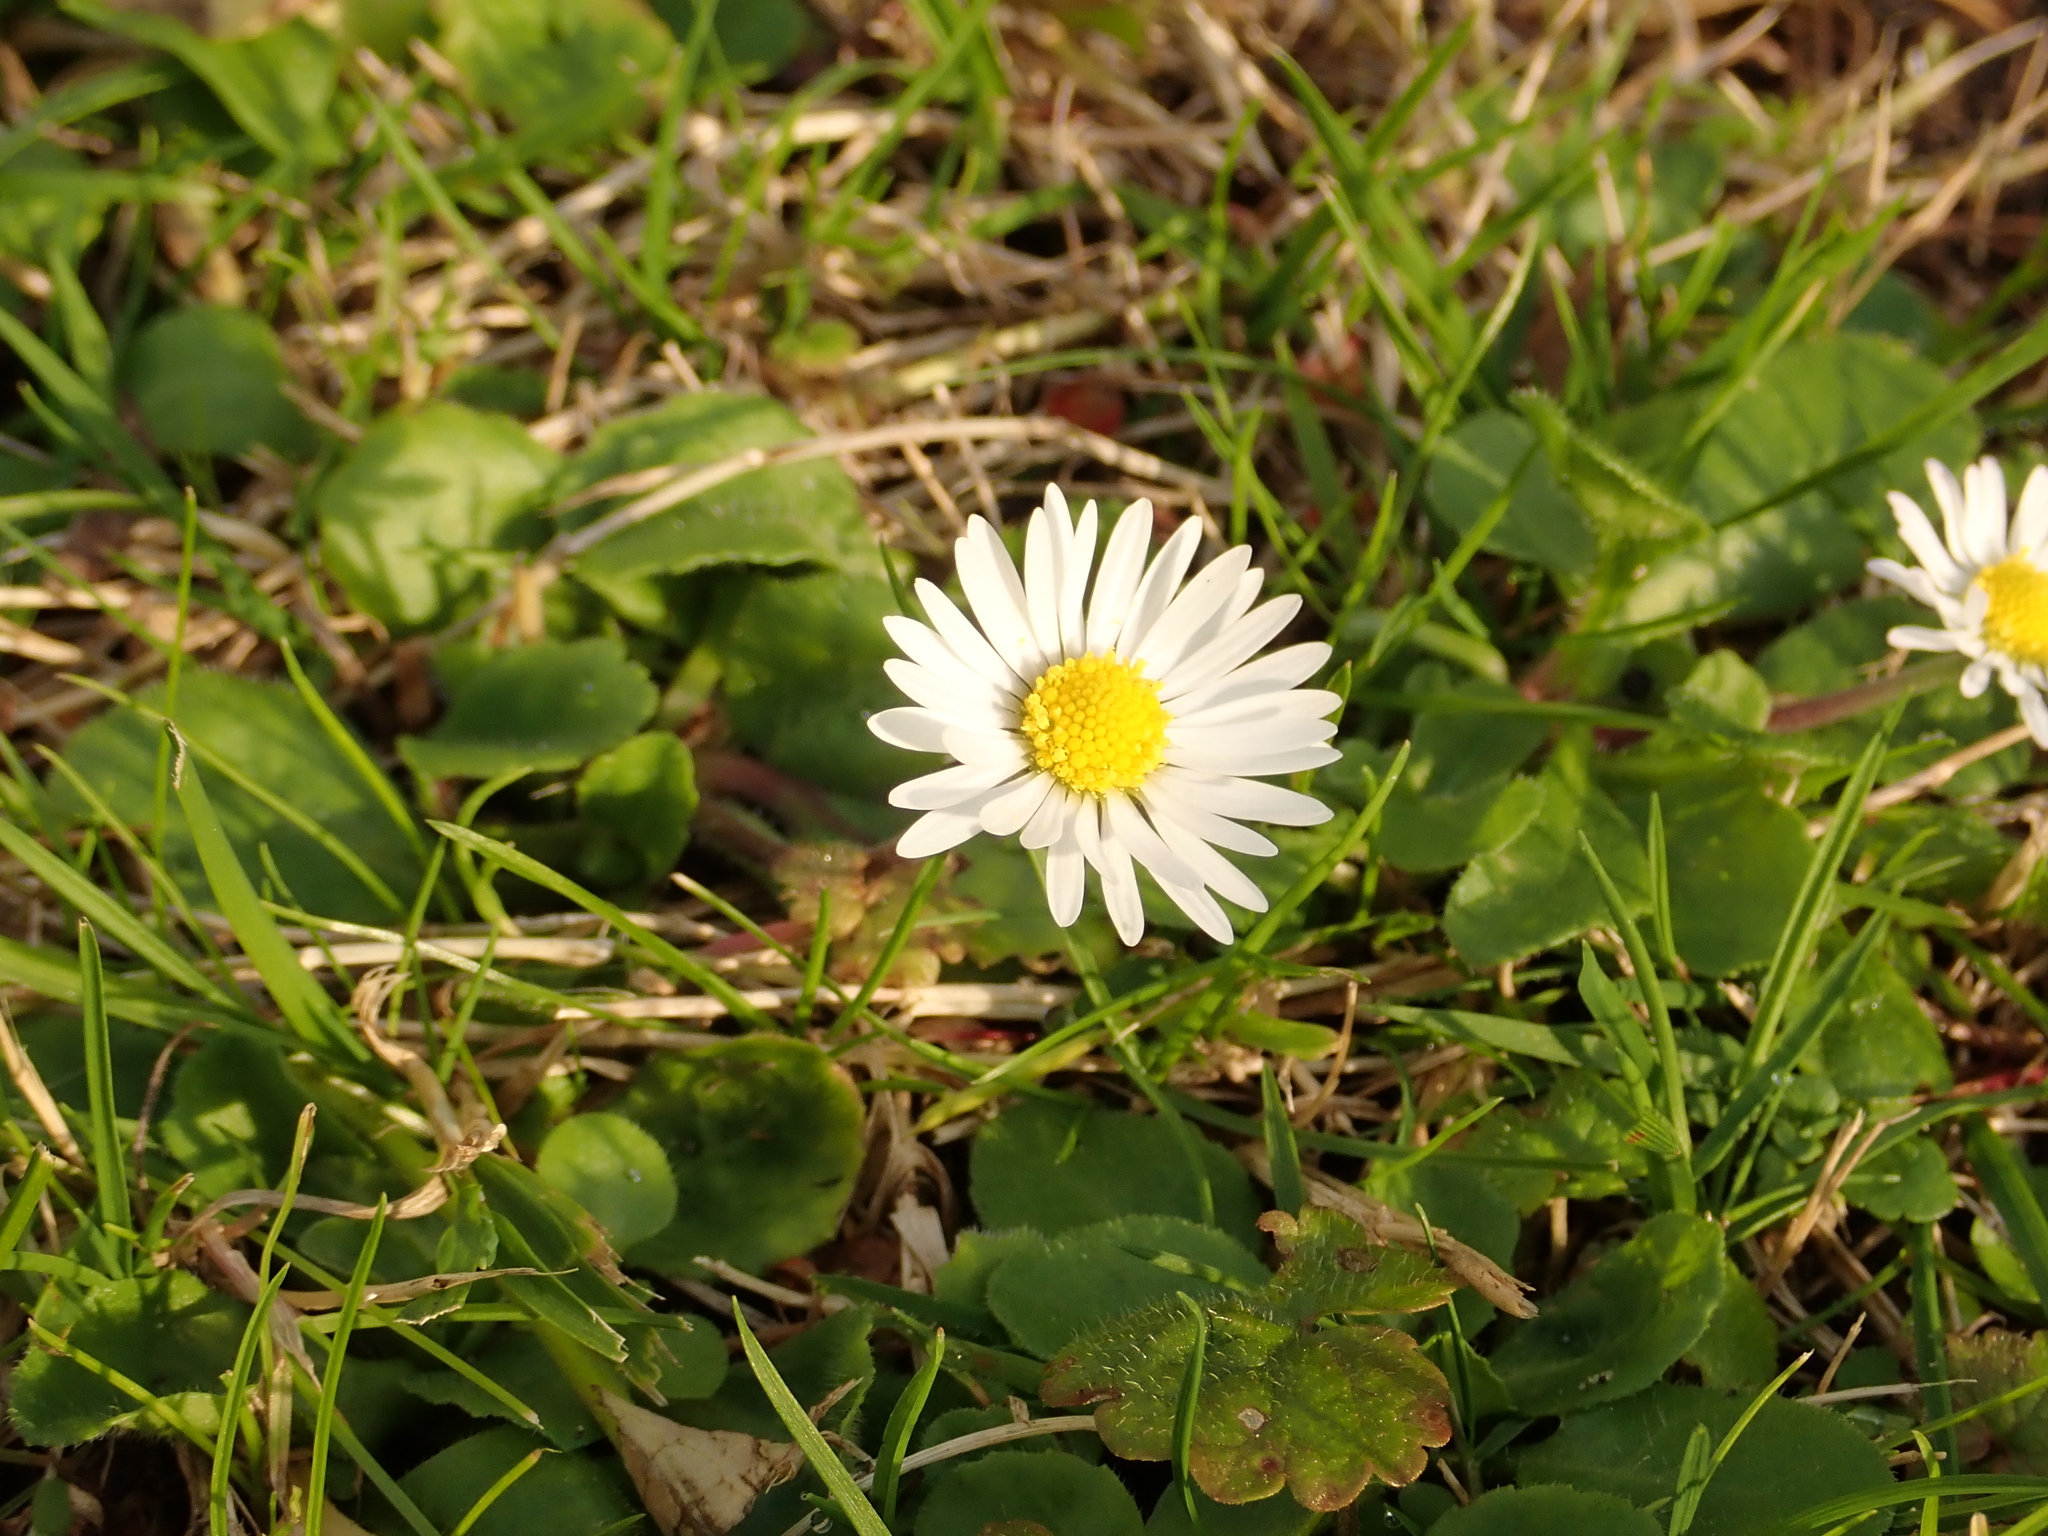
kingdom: Plantae
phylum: Tracheophyta
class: Magnoliopsida
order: Asterales
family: Asteraceae
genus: Bellis
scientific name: Bellis perennis
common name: Lawndaisy
